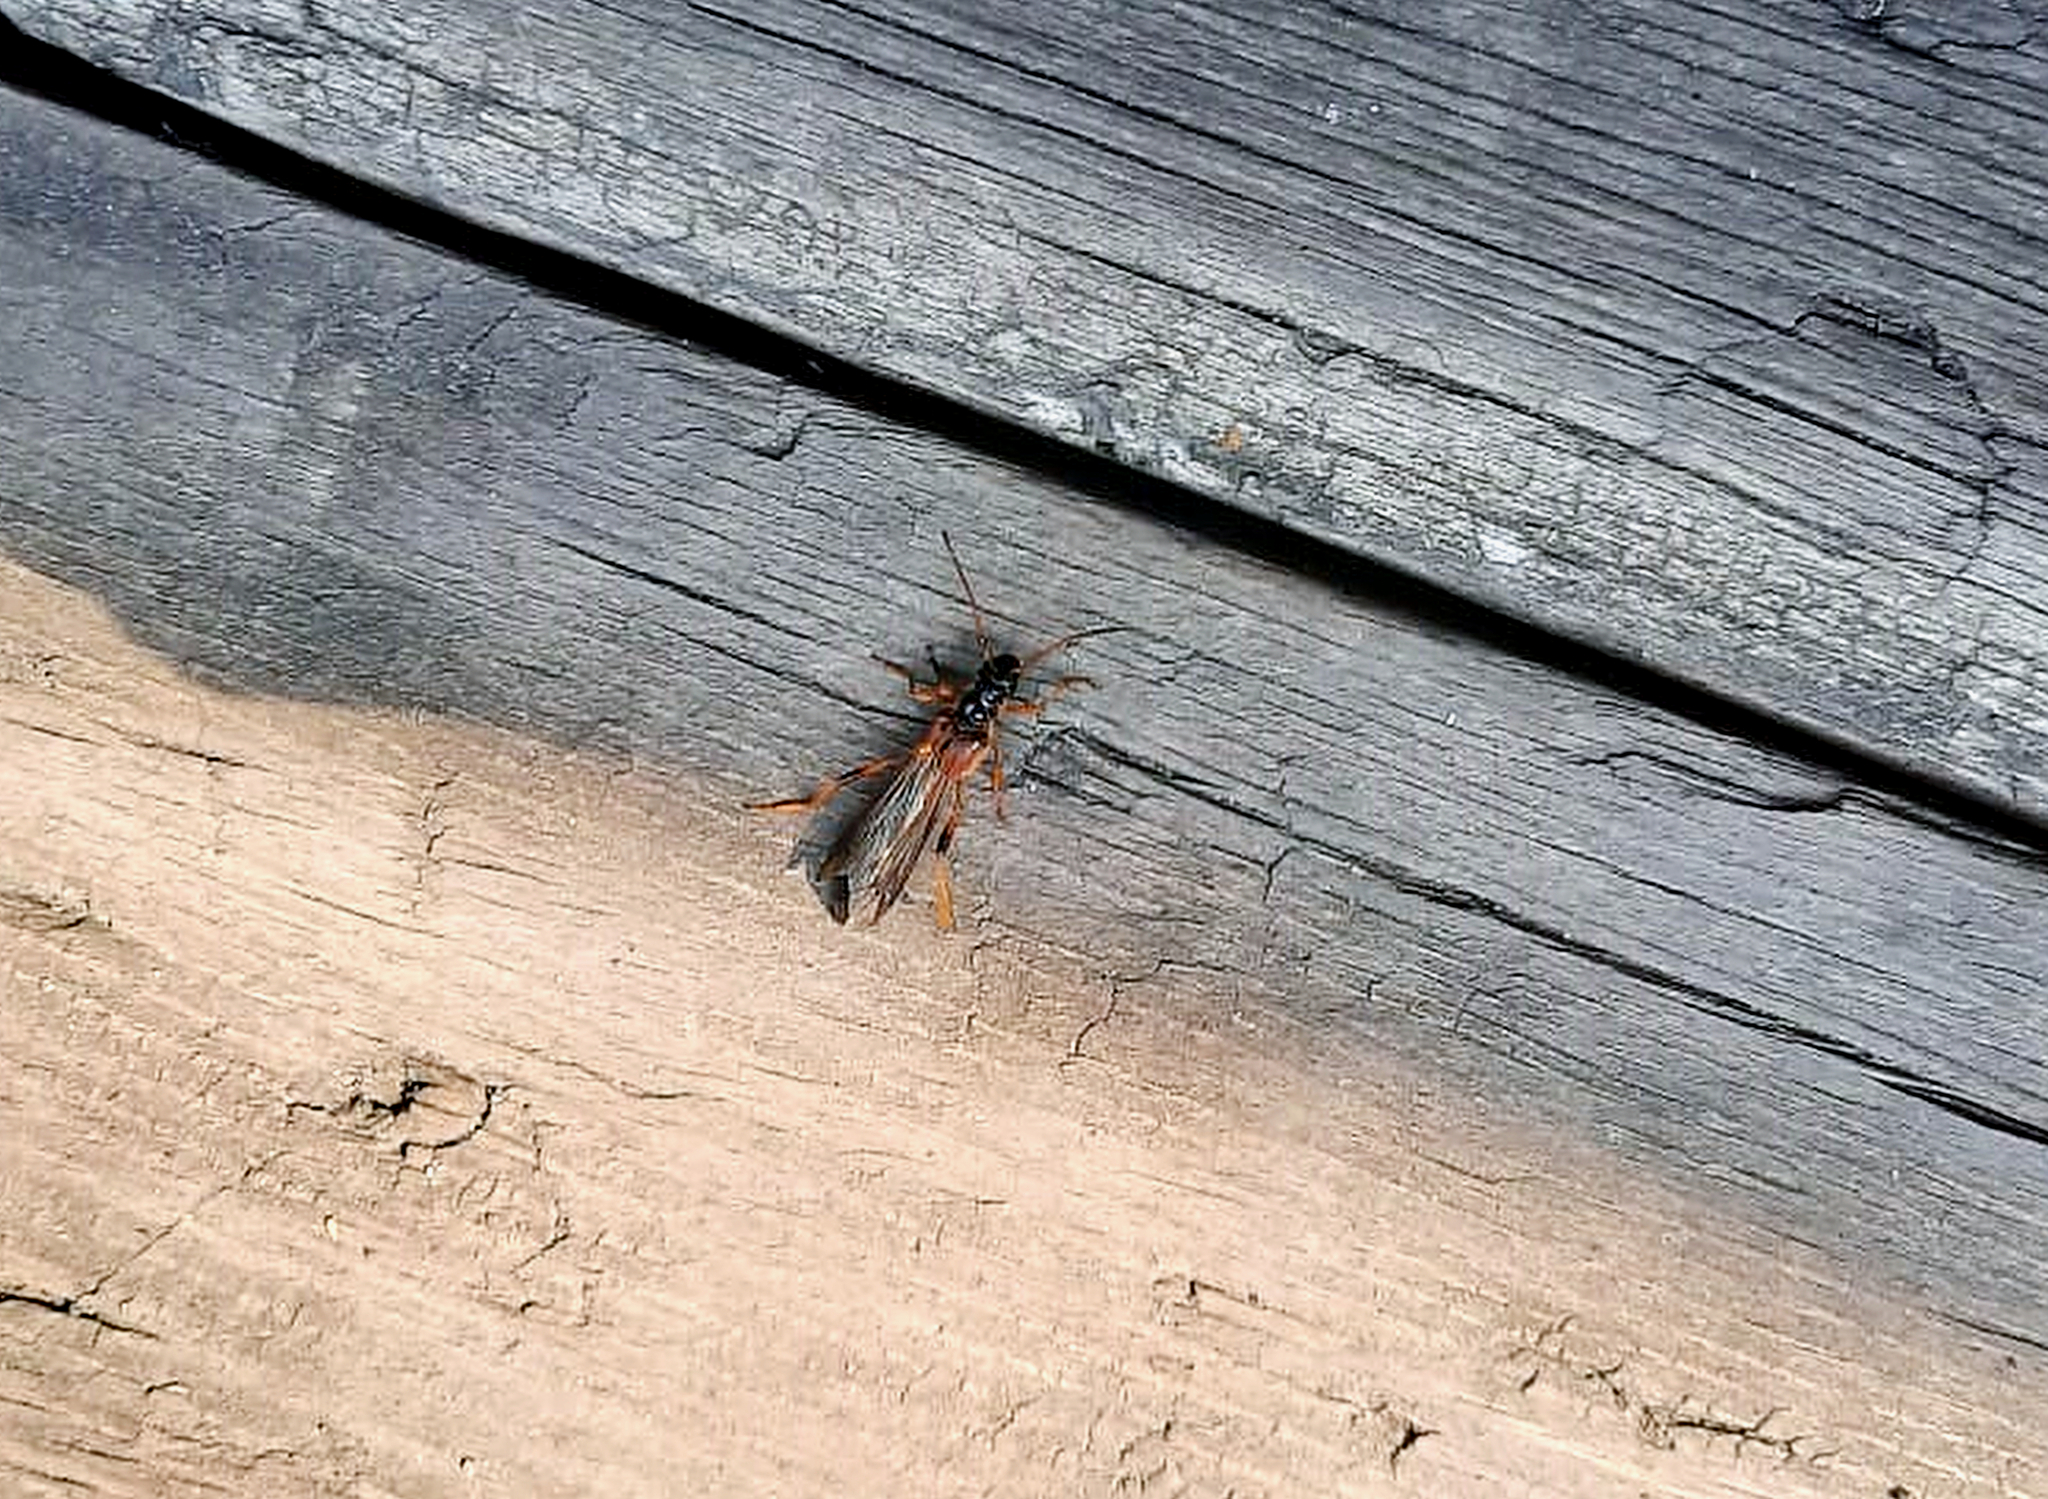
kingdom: Animalia
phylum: Arthropoda
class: Insecta
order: Coleoptera
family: Cerambycidae
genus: Necydalis
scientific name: Necydalis major
